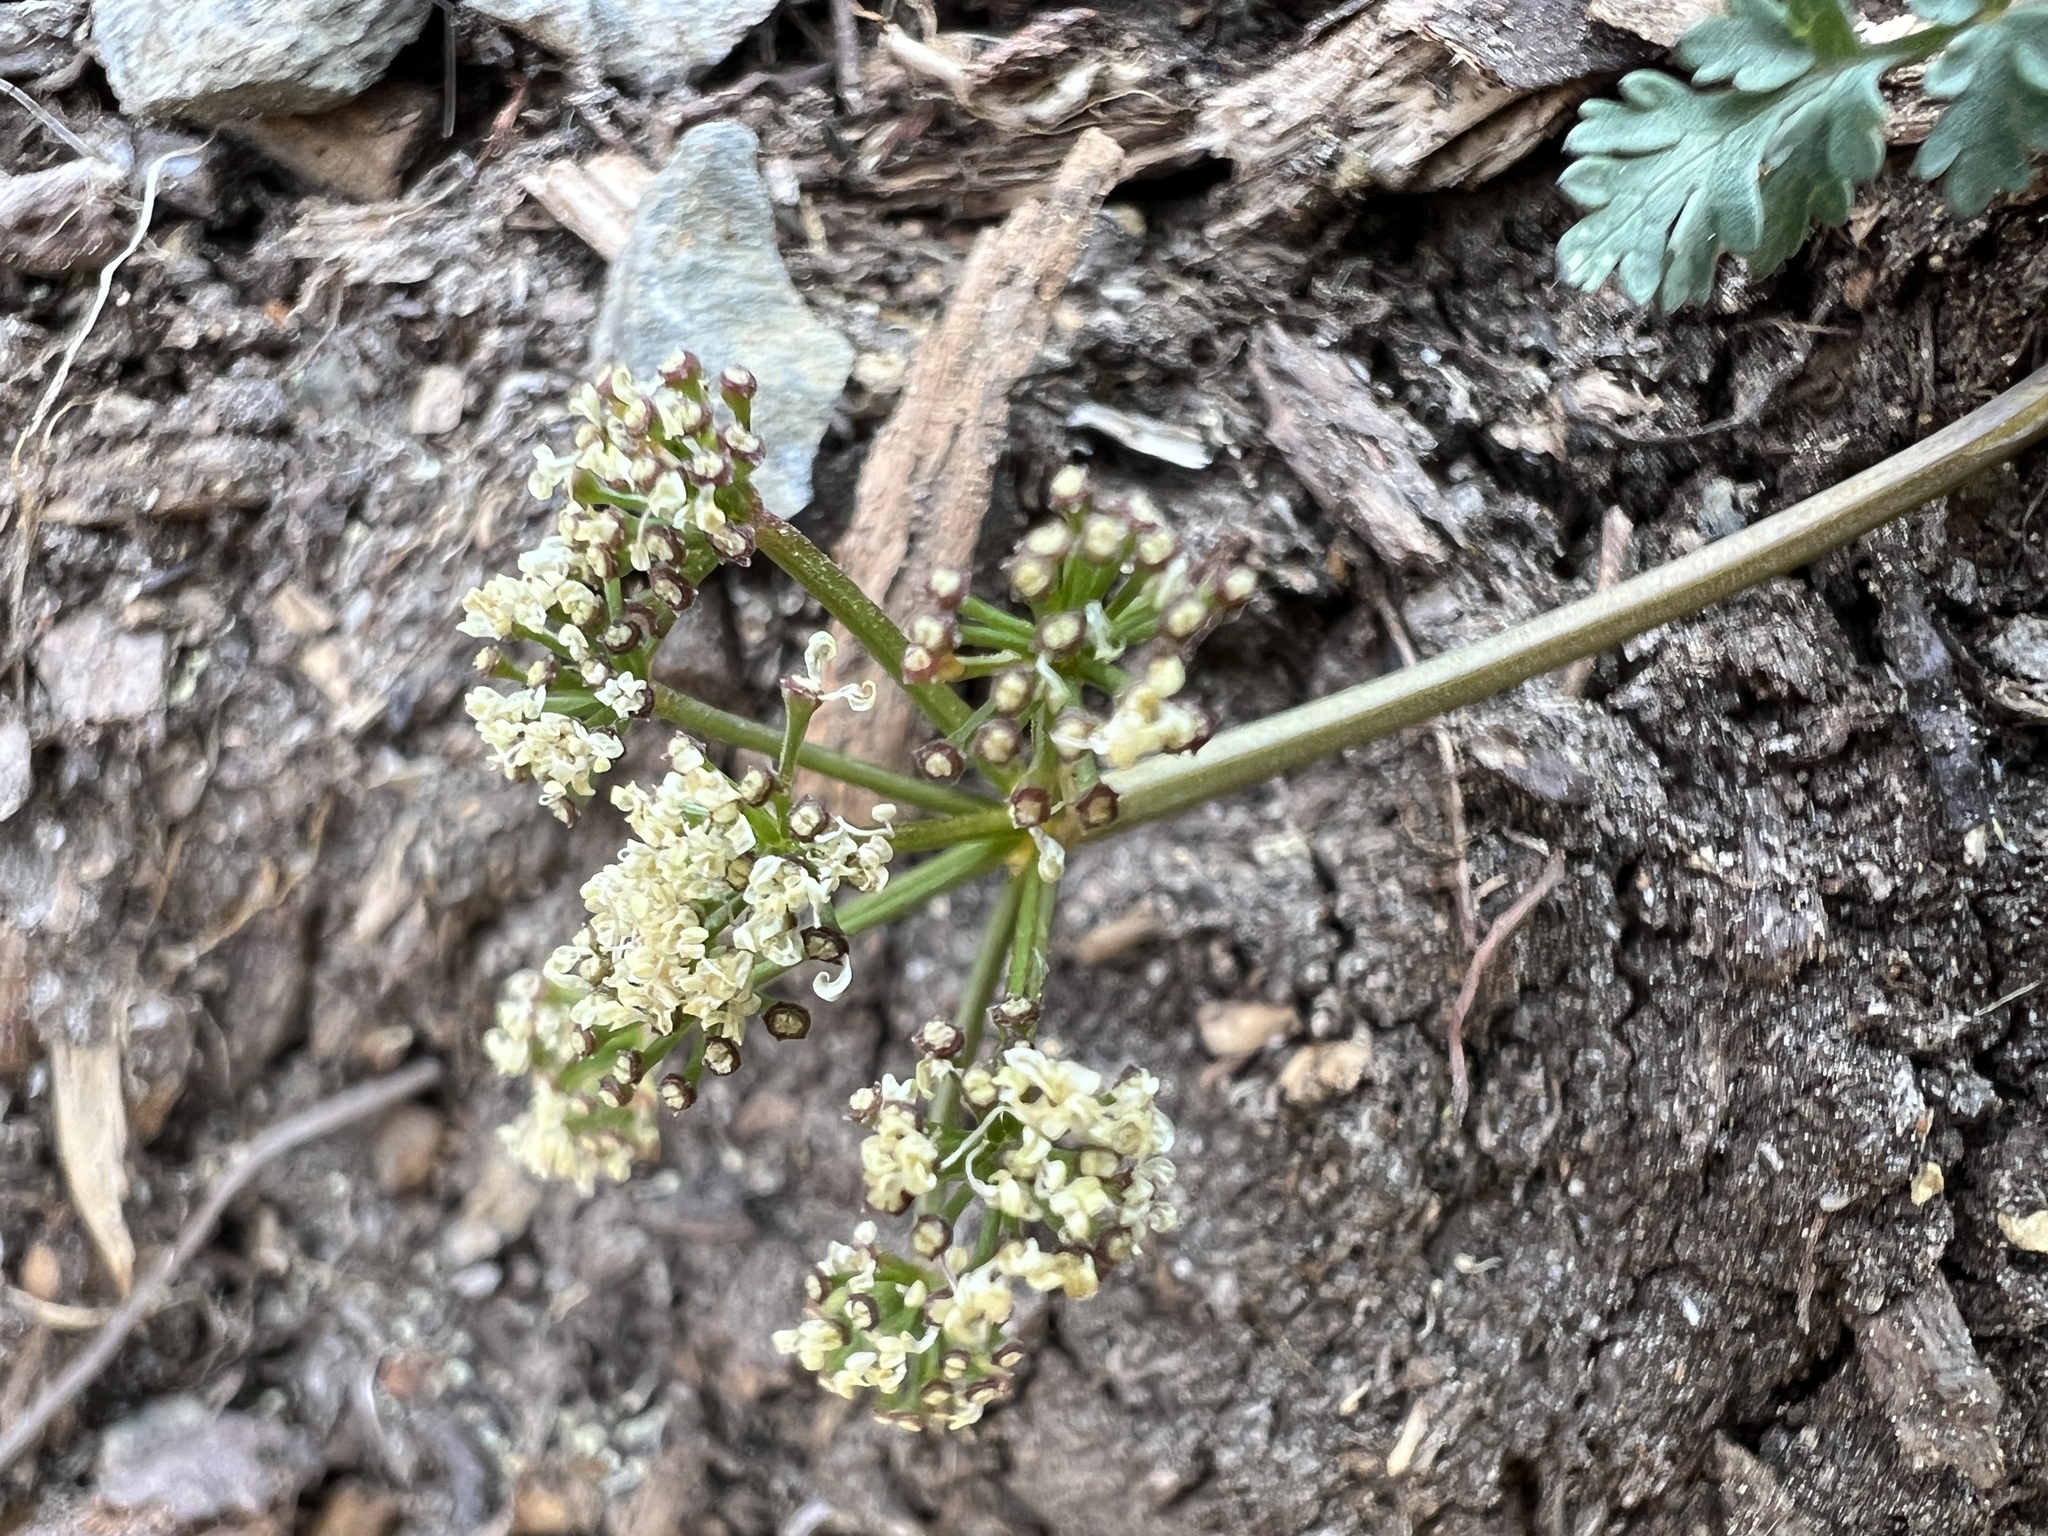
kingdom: Plantae
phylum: Tracheophyta
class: Magnoliopsida
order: Apiales
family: Apiaceae
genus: Lomatium
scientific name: Lomatium martindalei
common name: Cascade desert-parsley
